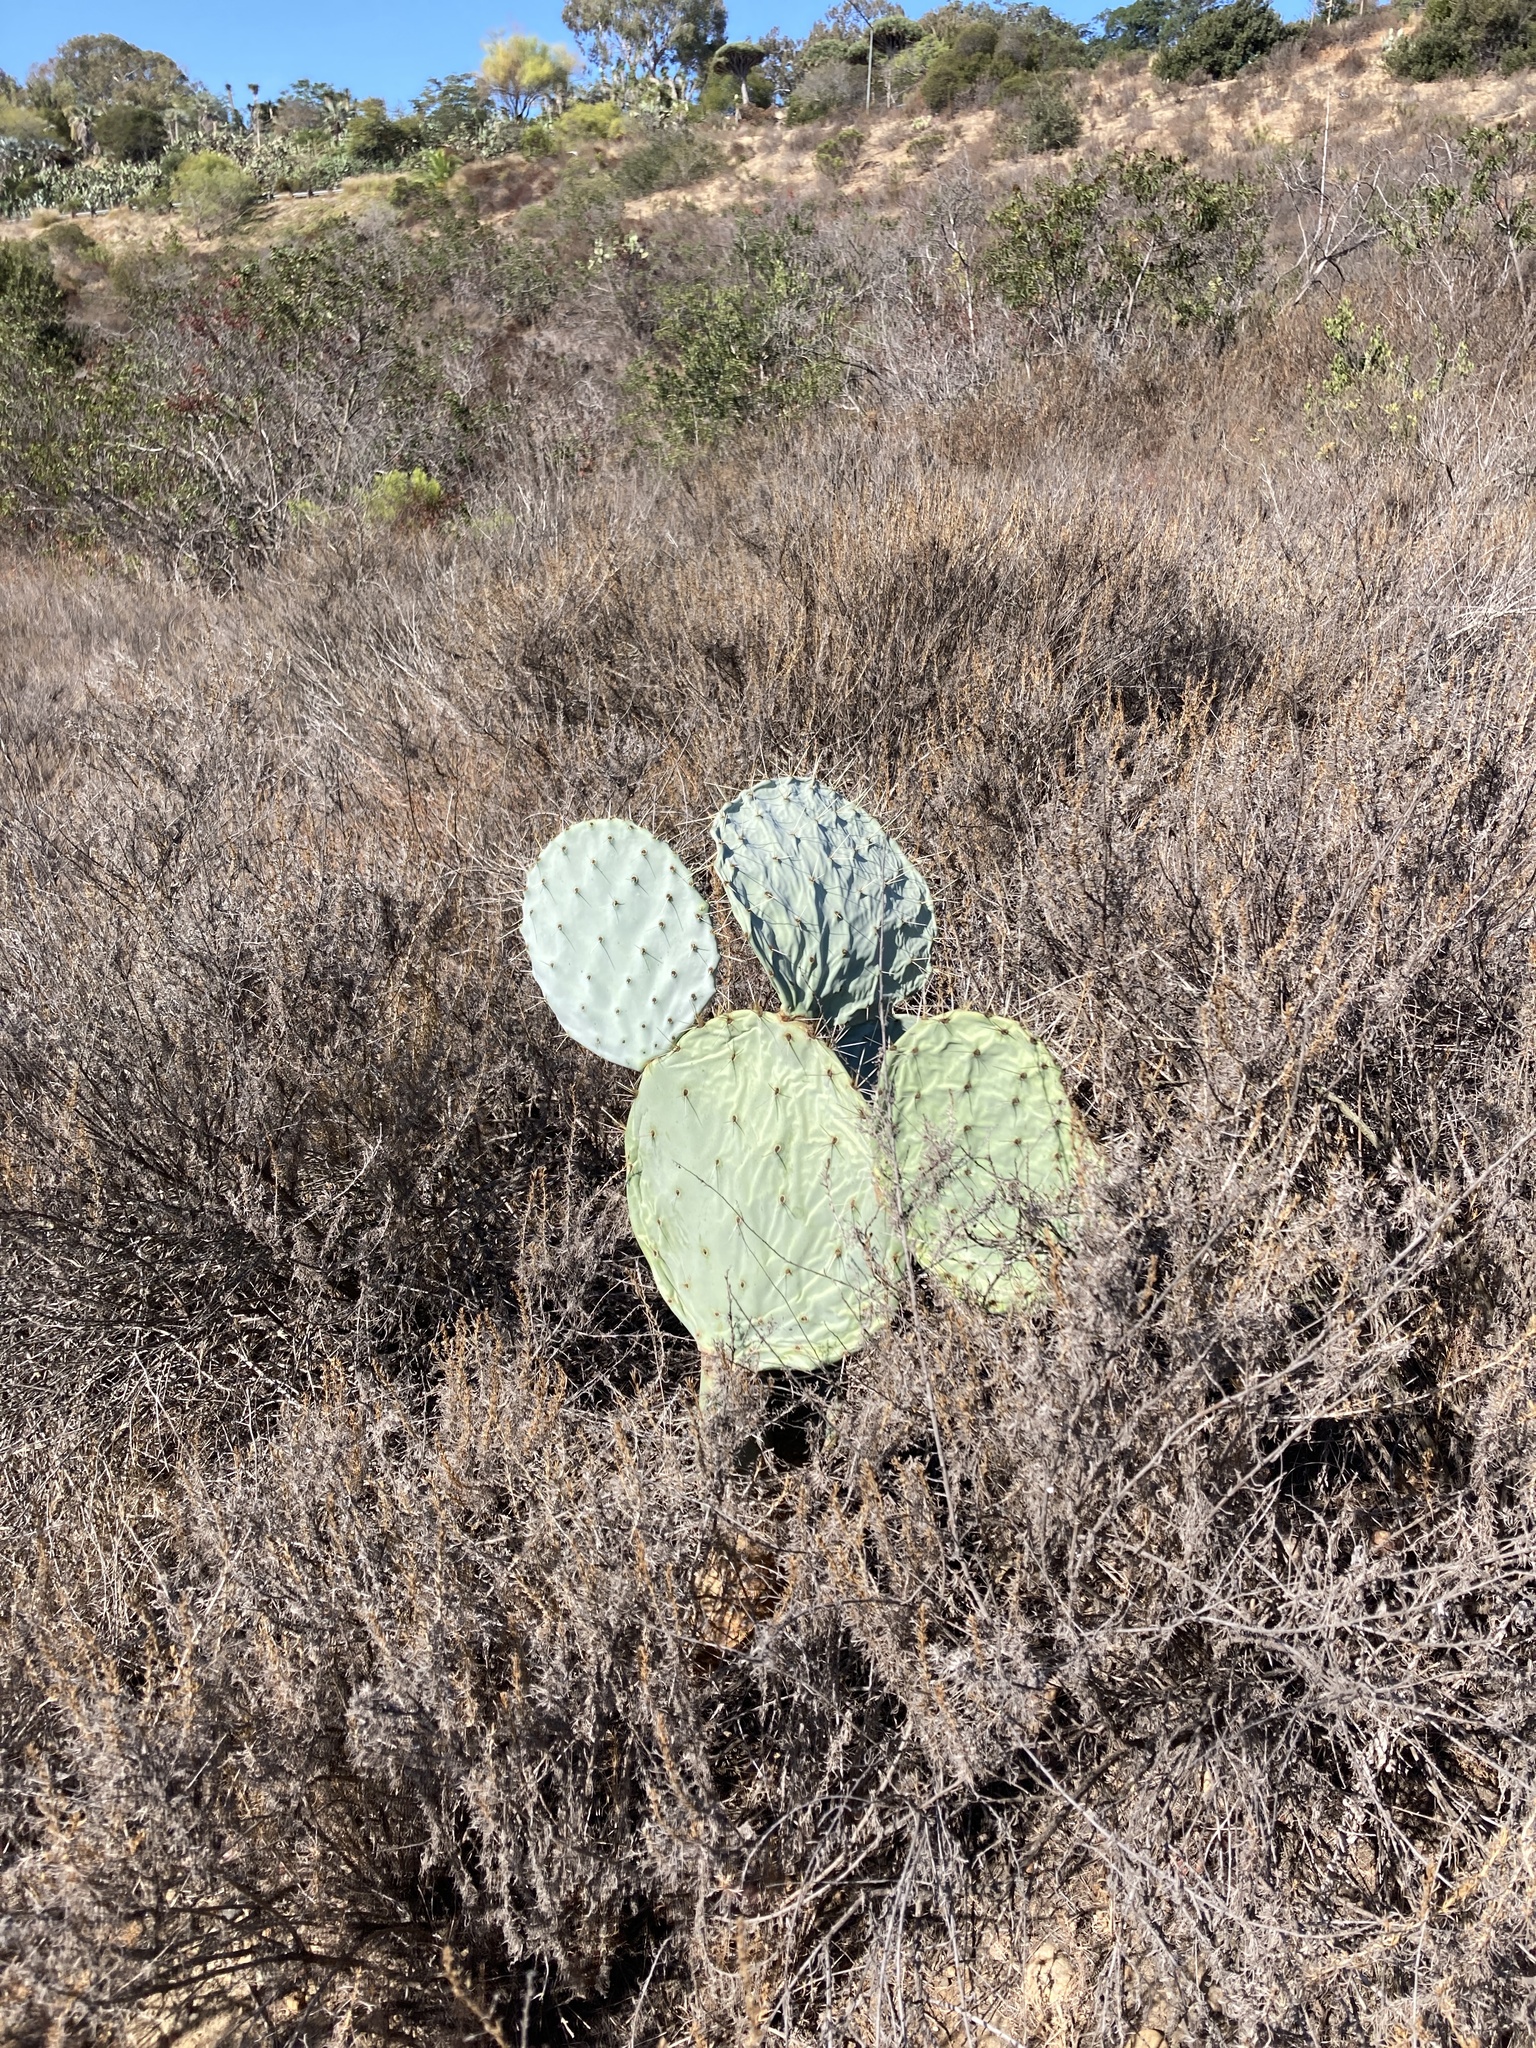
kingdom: Plantae
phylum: Tracheophyta
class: Magnoliopsida
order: Caryophyllales
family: Cactaceae
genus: Opuntia
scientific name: Opuntia robusta
